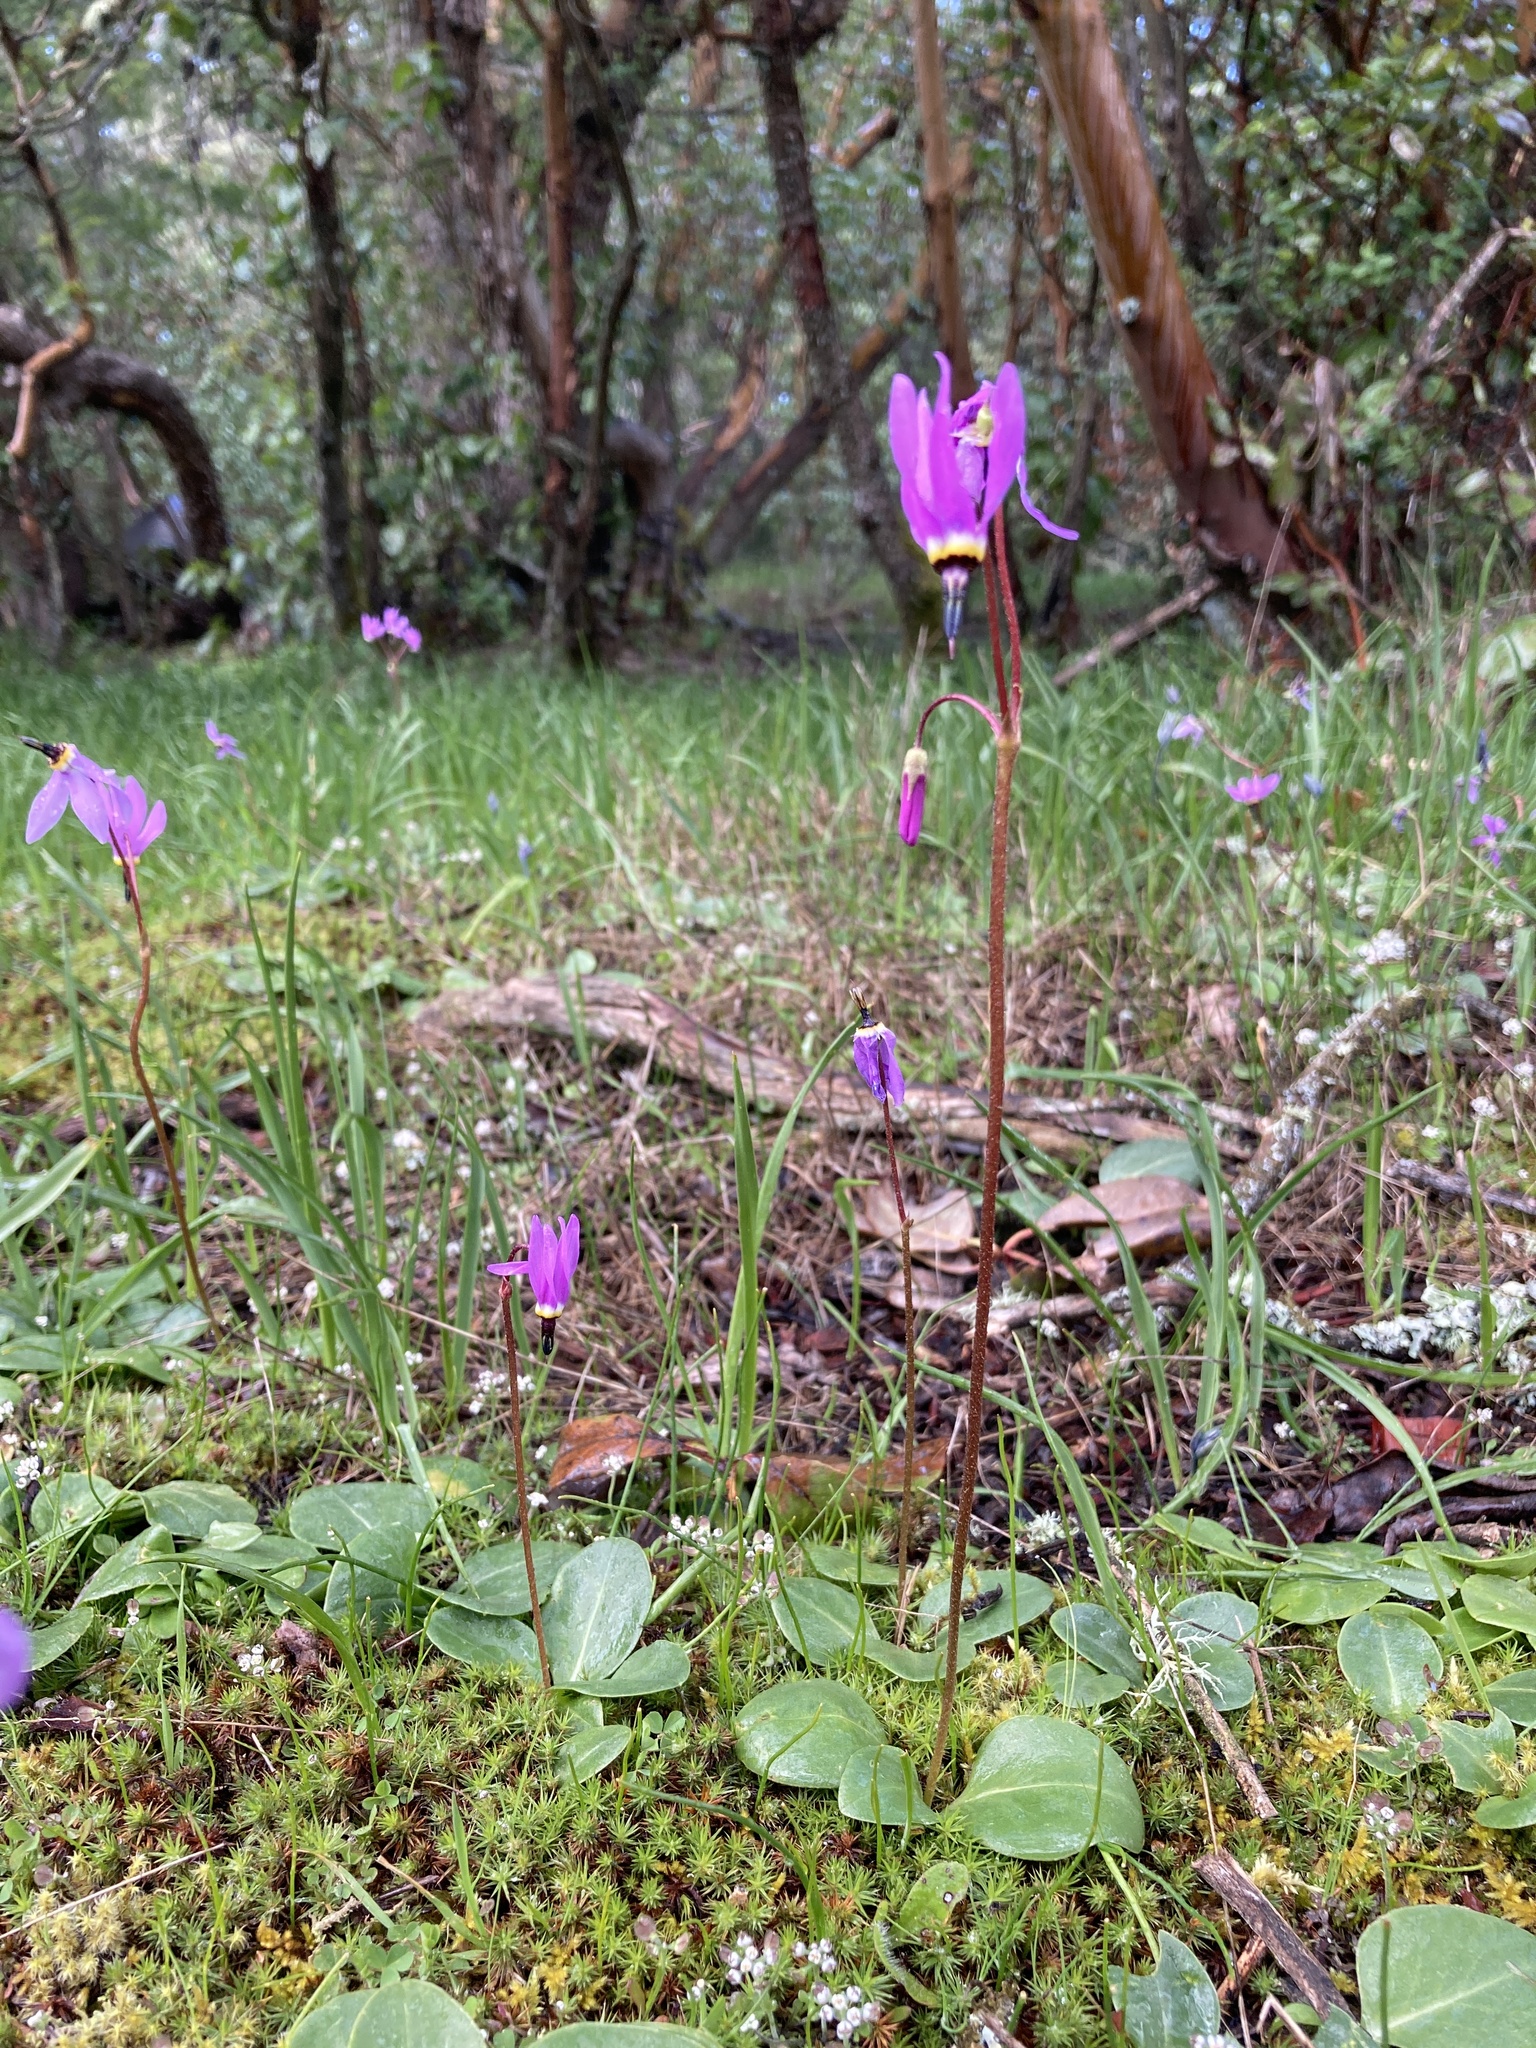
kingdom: Plantae
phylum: Tracheophyta
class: Magnoliopsida
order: Ericales
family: Primulaceae
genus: Dodecatheon
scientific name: Dodecatheon hendersonii
